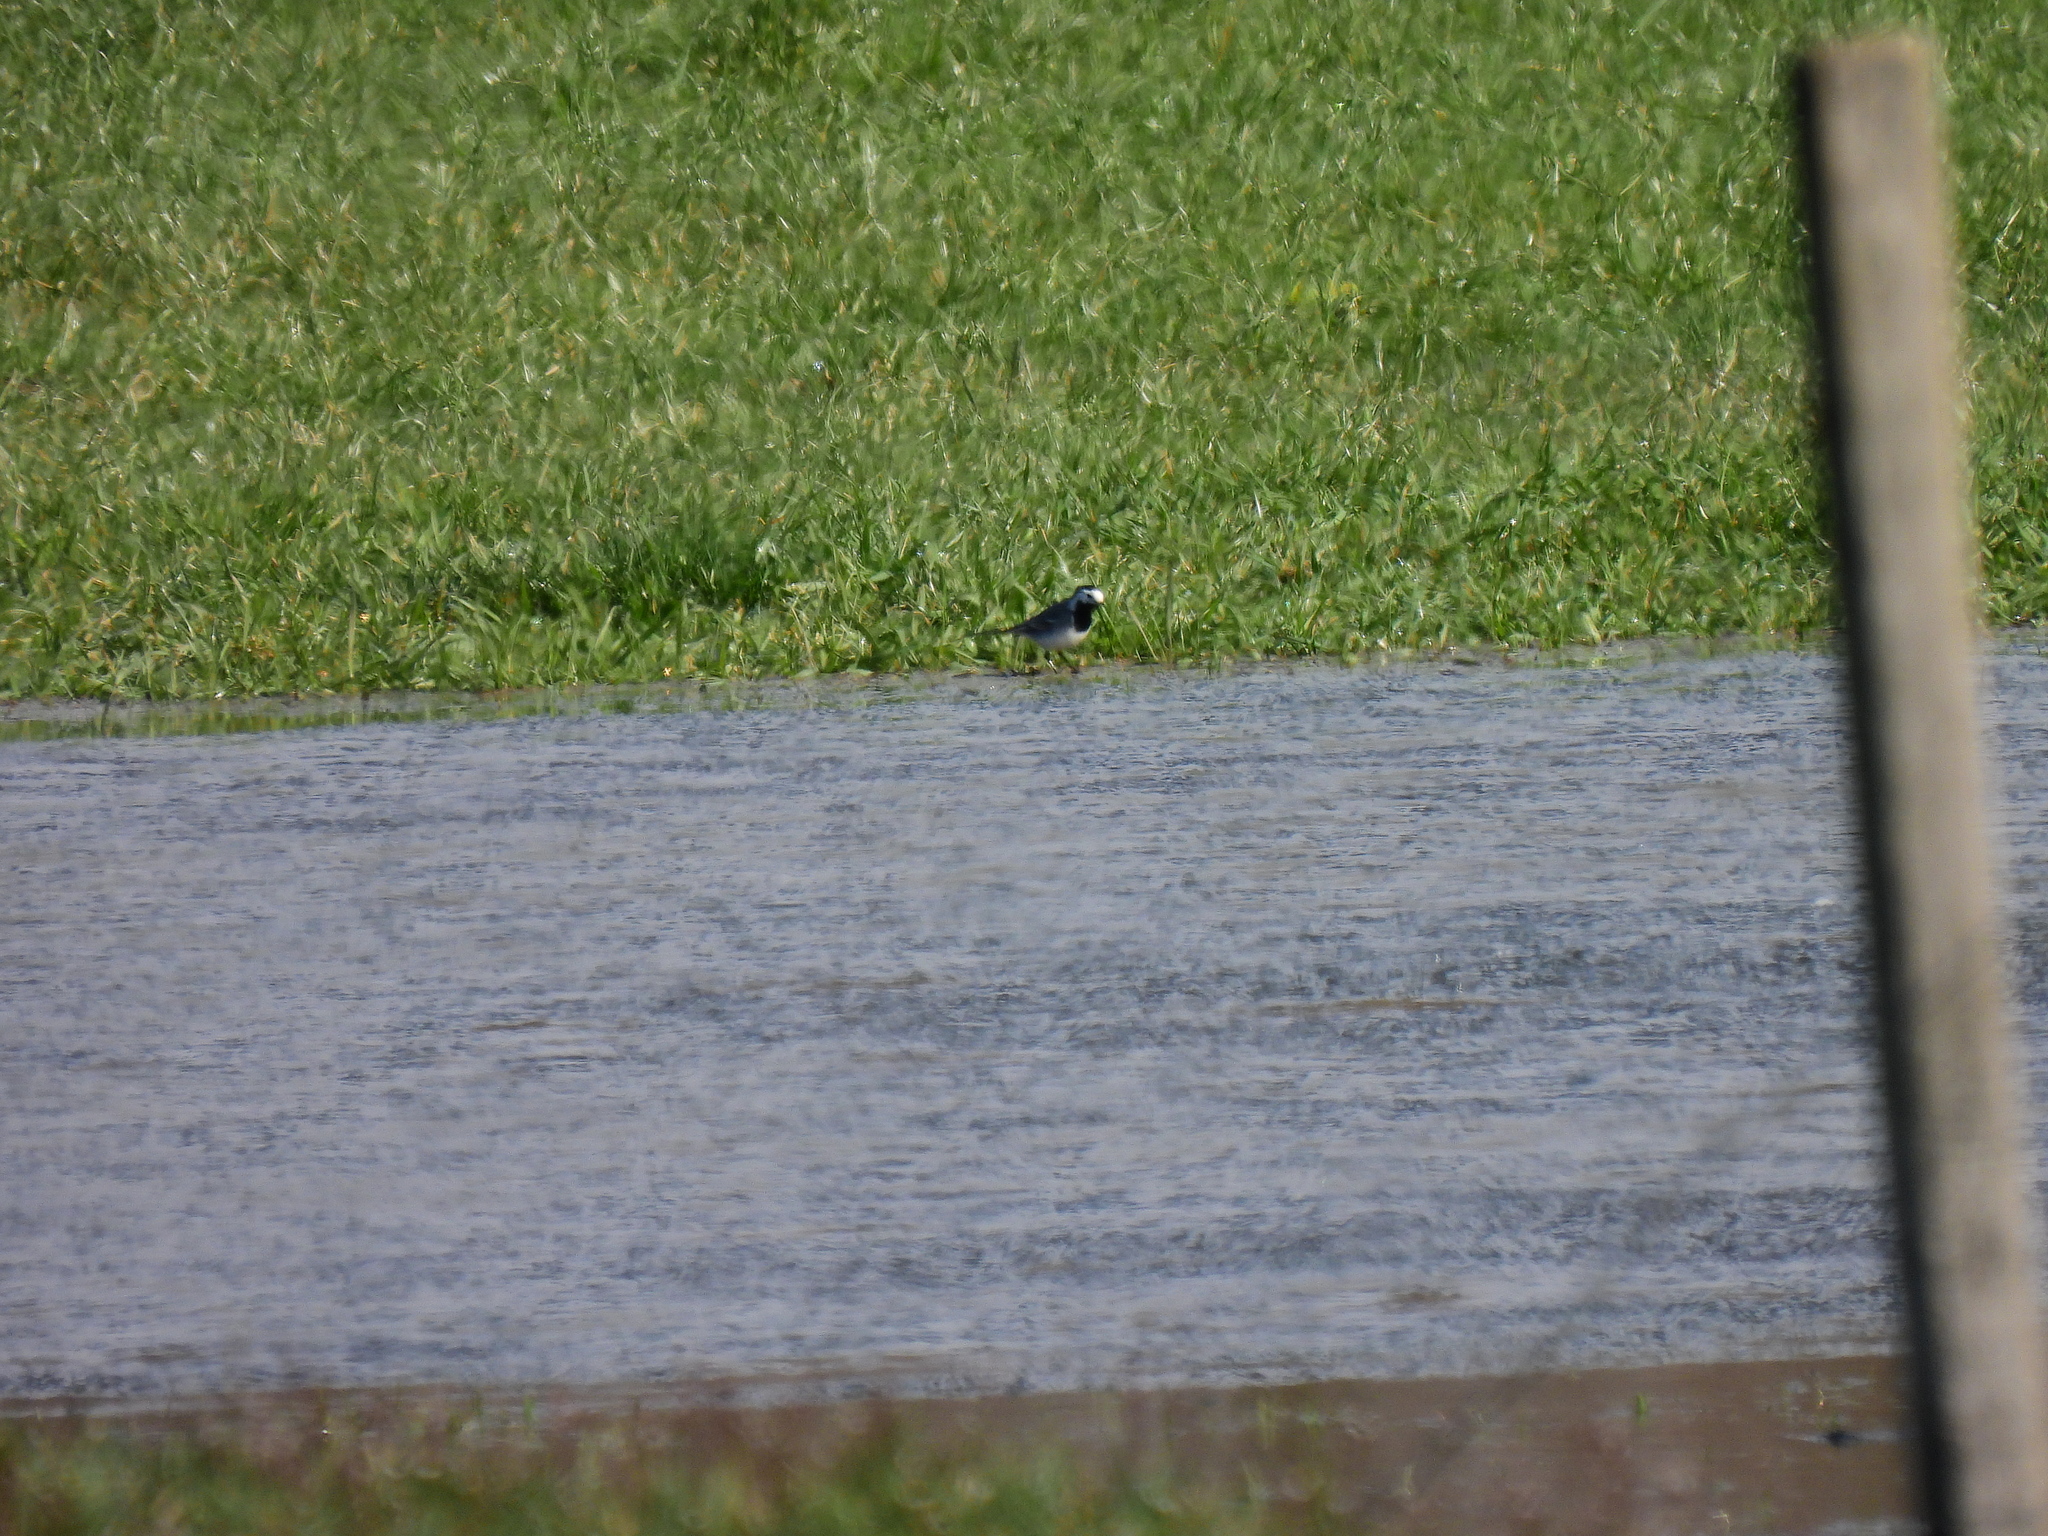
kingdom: Animalia
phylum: Chordata
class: Aves
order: Passeriformes
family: Motacillidae
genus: Motacilla
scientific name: Motacilla alba
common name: White wagtail
